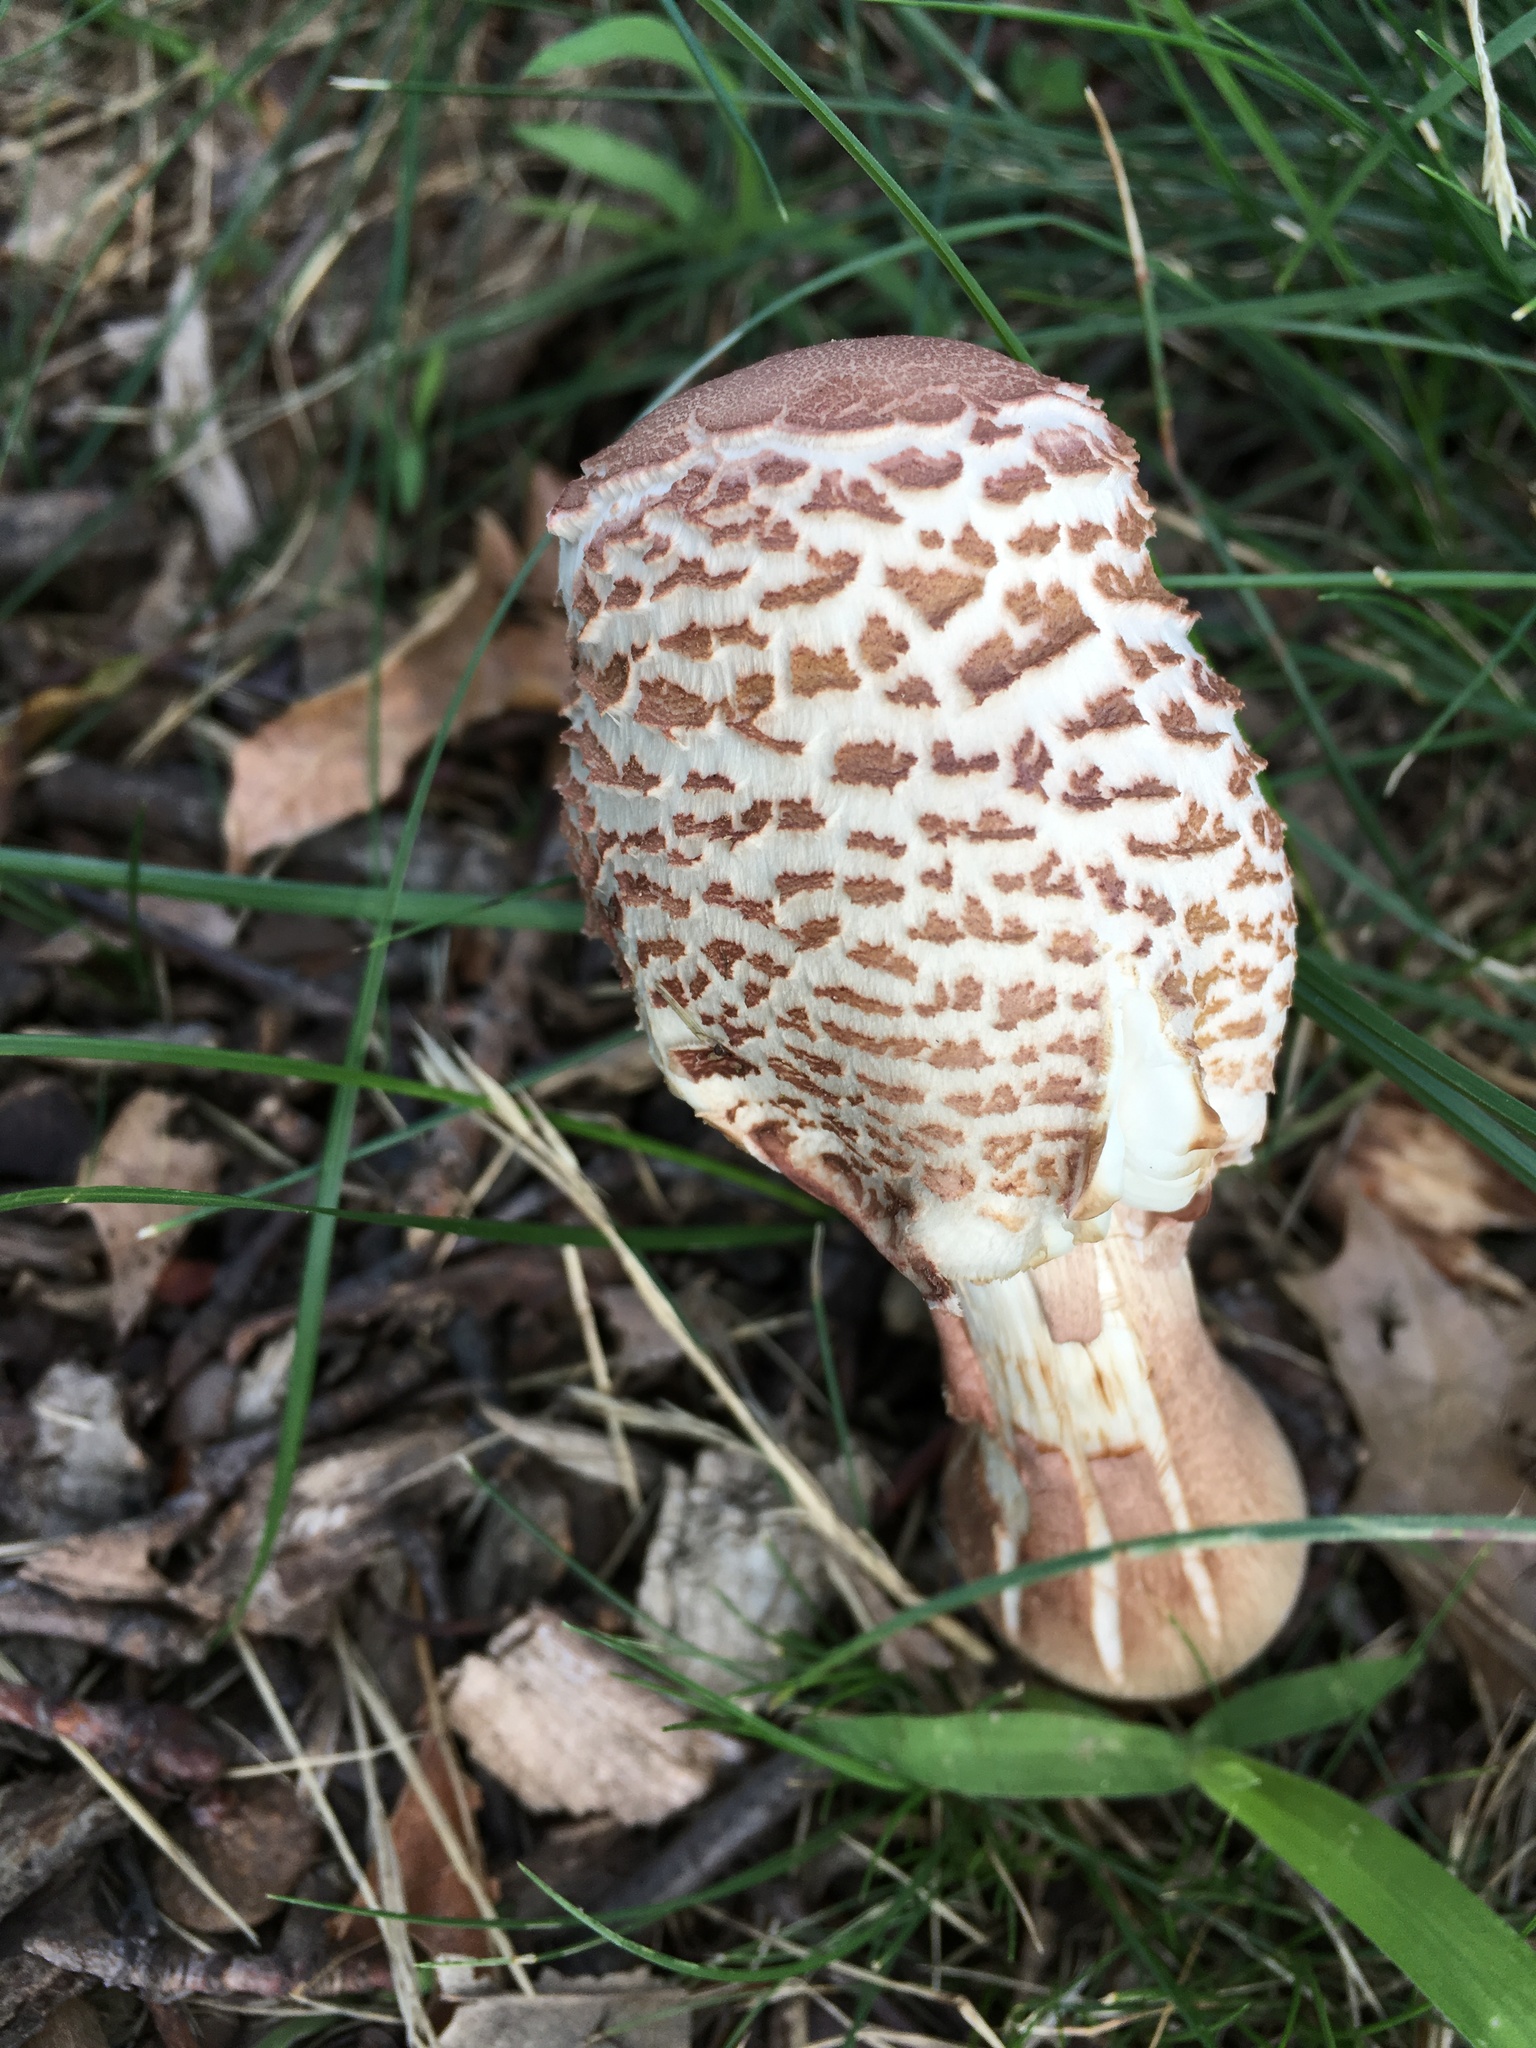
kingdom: Fungi
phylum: Basidiomycota
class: Agaricomycetes
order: Agaricales
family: Agaricaceae
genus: Leucoagaricus
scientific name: Leucoagaricus americanus
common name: Reddening lepiota
